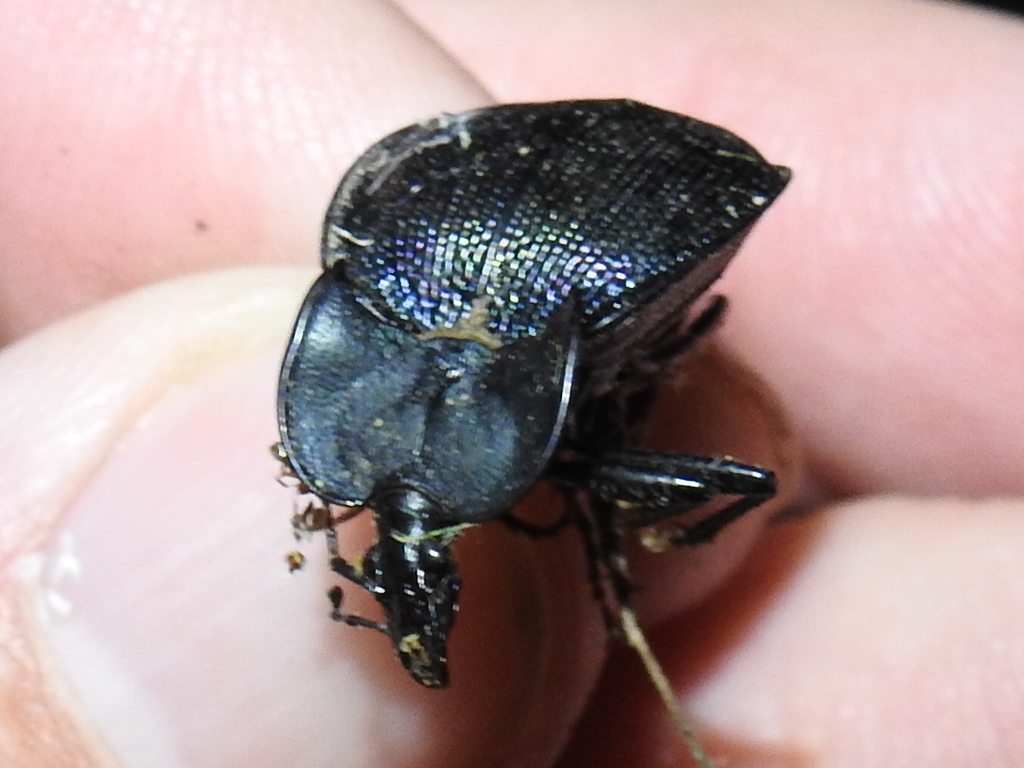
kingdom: Animalia
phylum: Arthropoda
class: Insecta
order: Coleoptera
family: Carabidae
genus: Scaphinotus
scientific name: Scaphinotus elevatus
